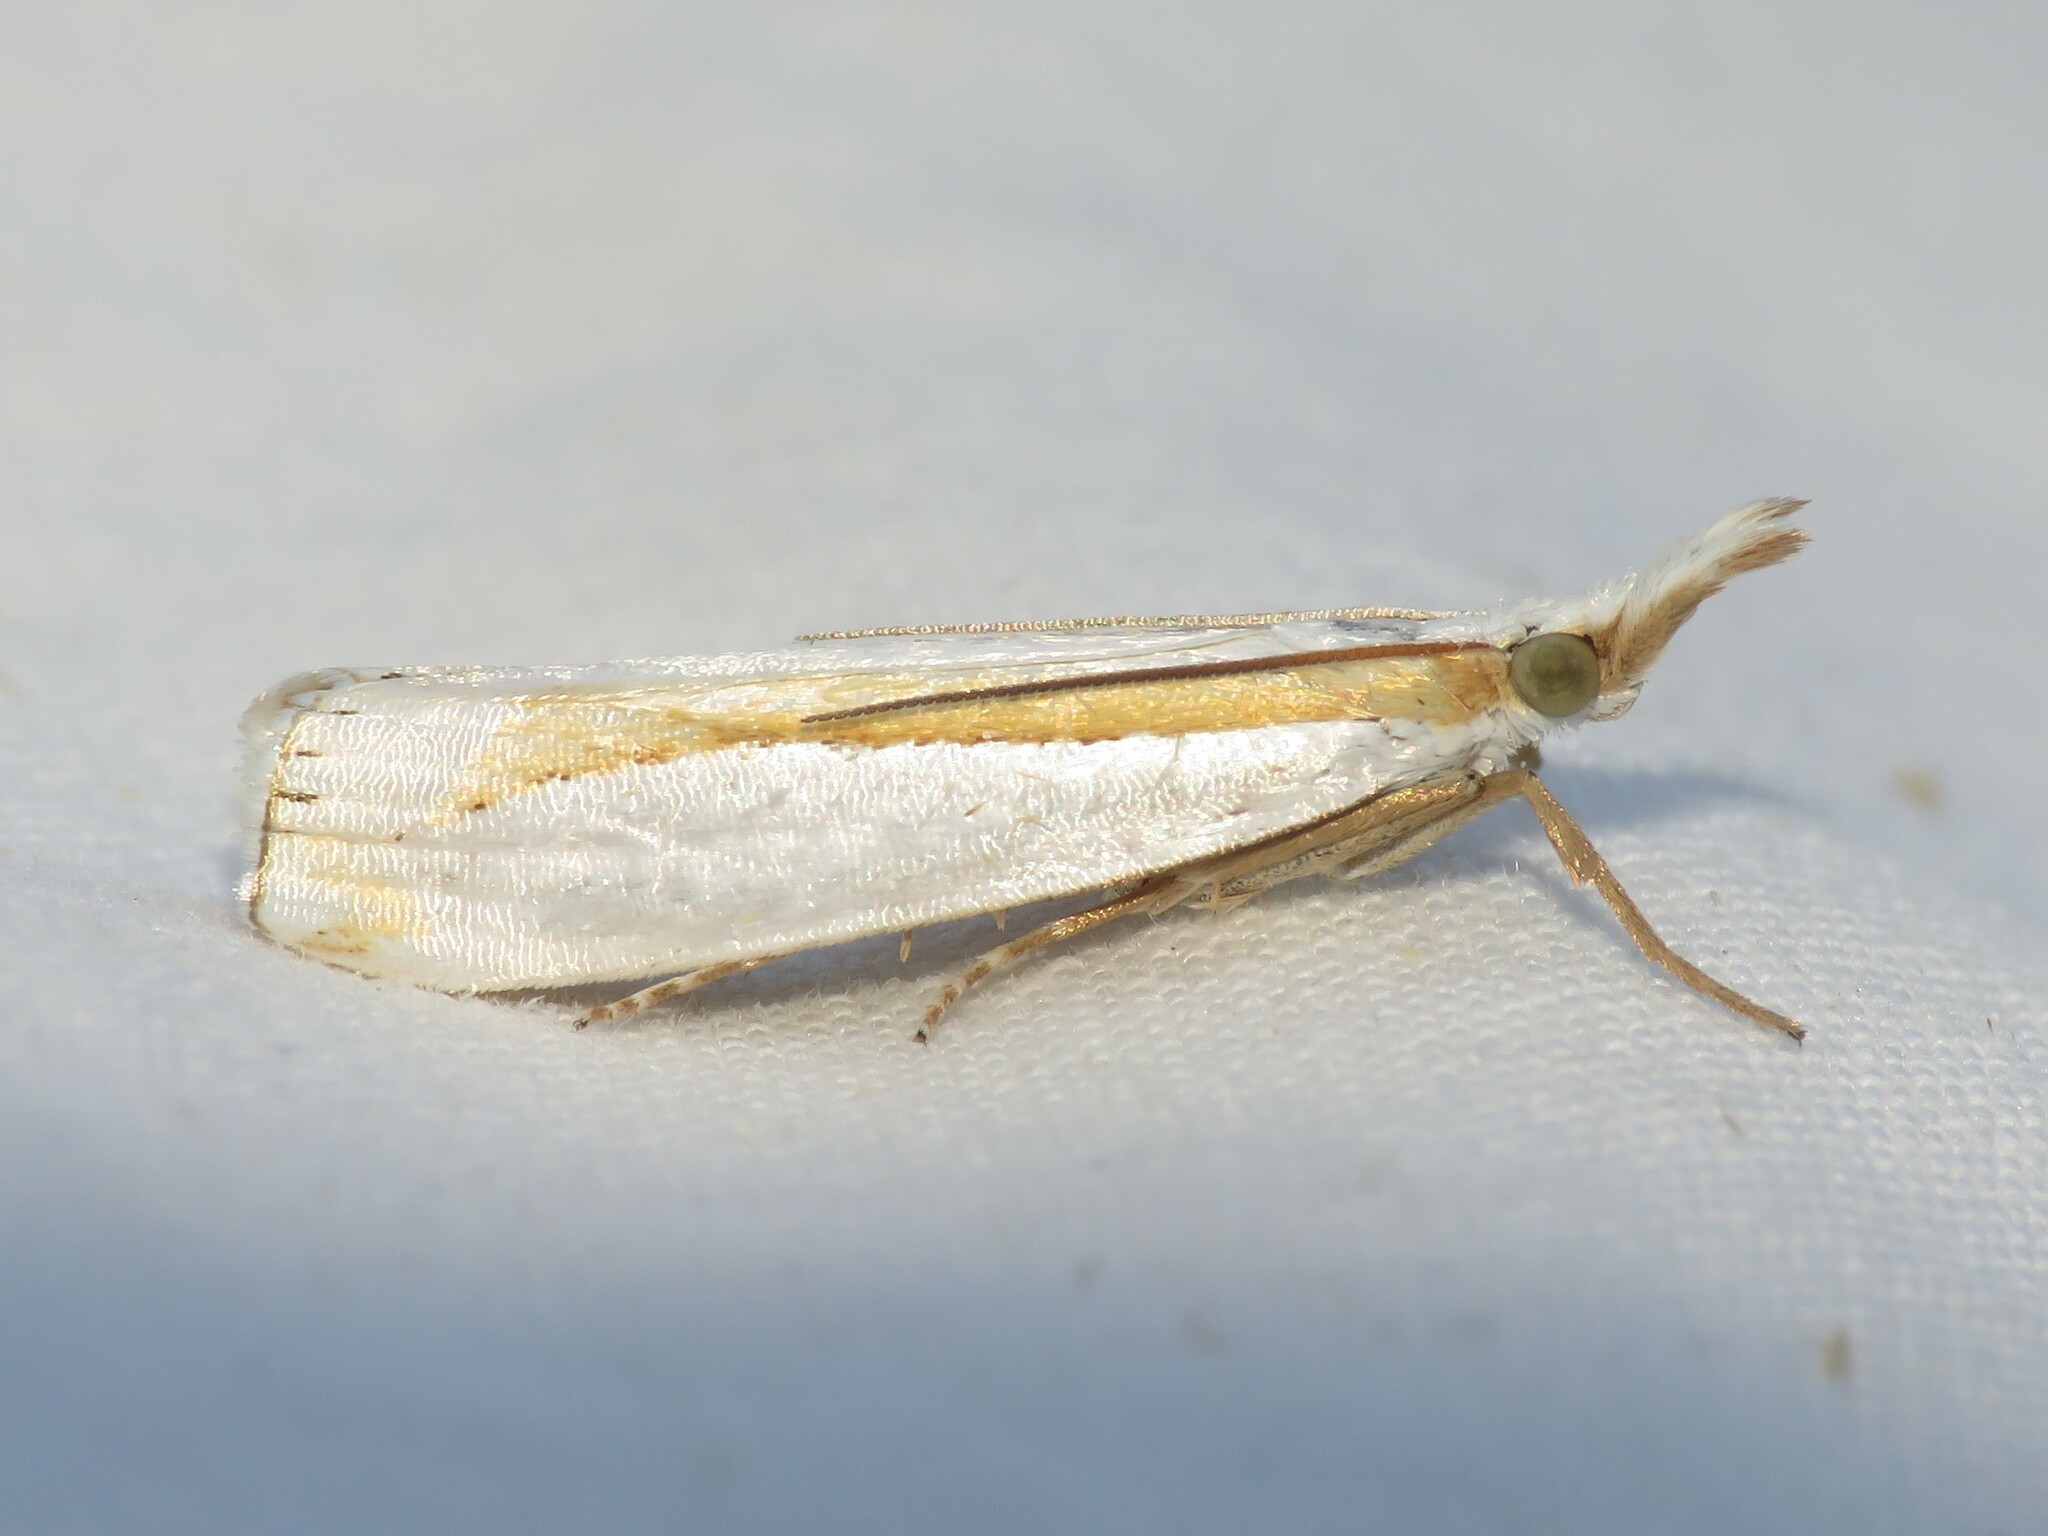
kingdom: Animalia
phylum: Arthropoda
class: Insecta
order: Lepidoptera
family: Crambidae
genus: Crambus
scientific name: Crambus girardellus
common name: Girard's grass-veneer
